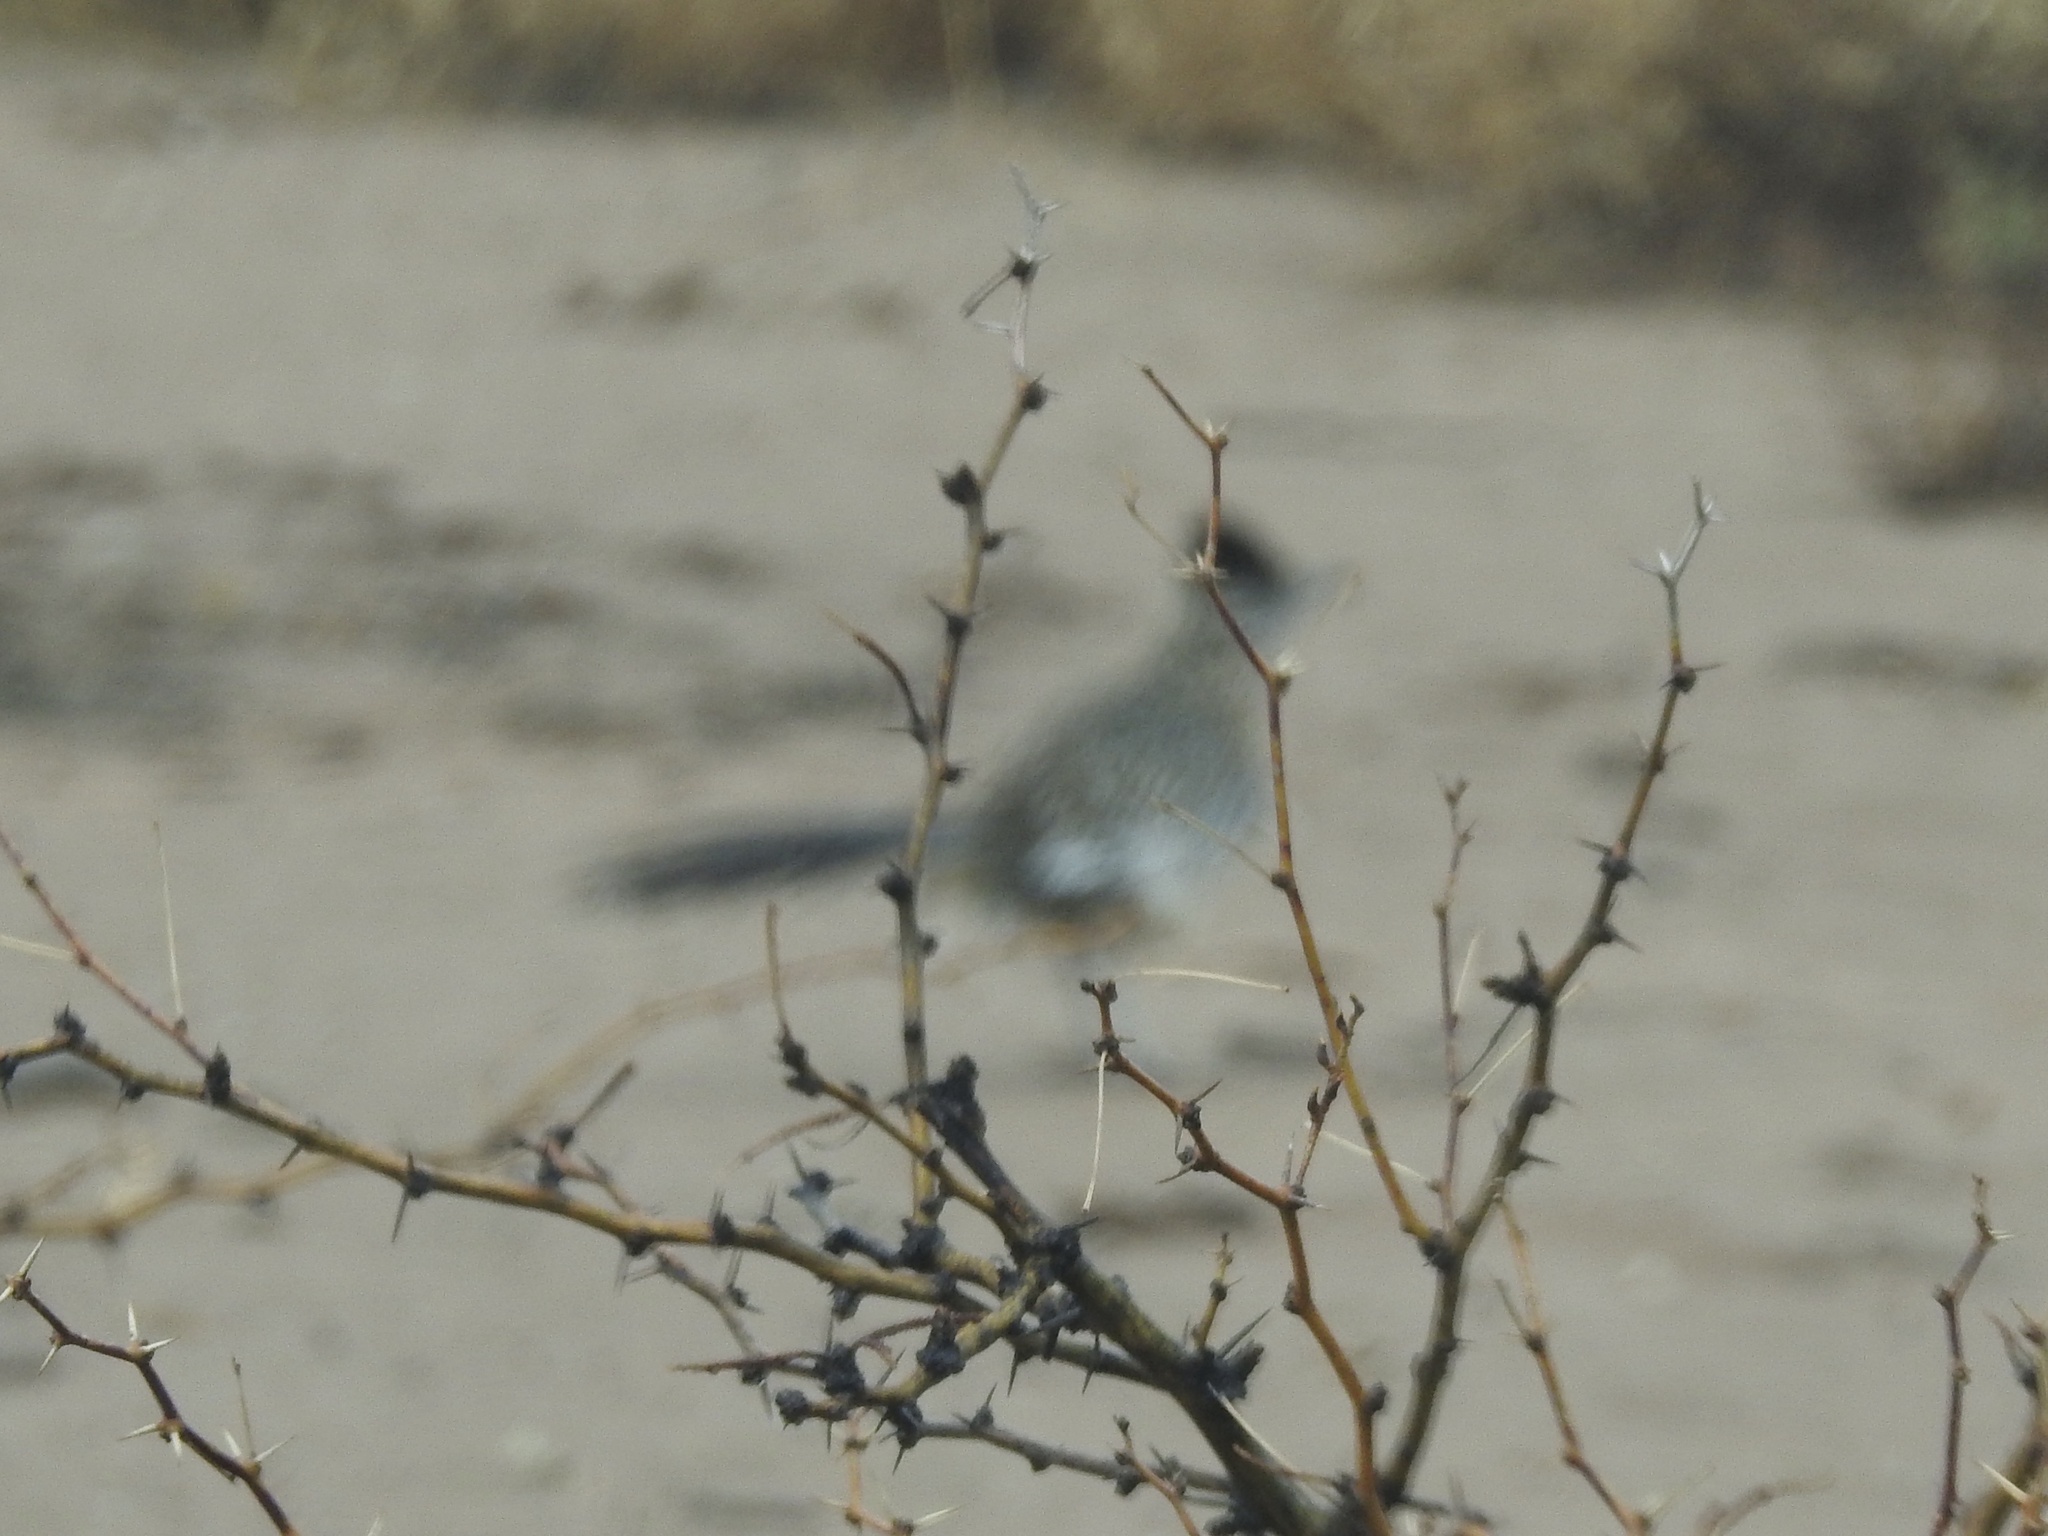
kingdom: Animalia
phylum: Chordata
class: Aves
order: Cuculiformes
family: Cuculidae
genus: Geococcyx
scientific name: Geococcyx californianus
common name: Greater roadrunner
